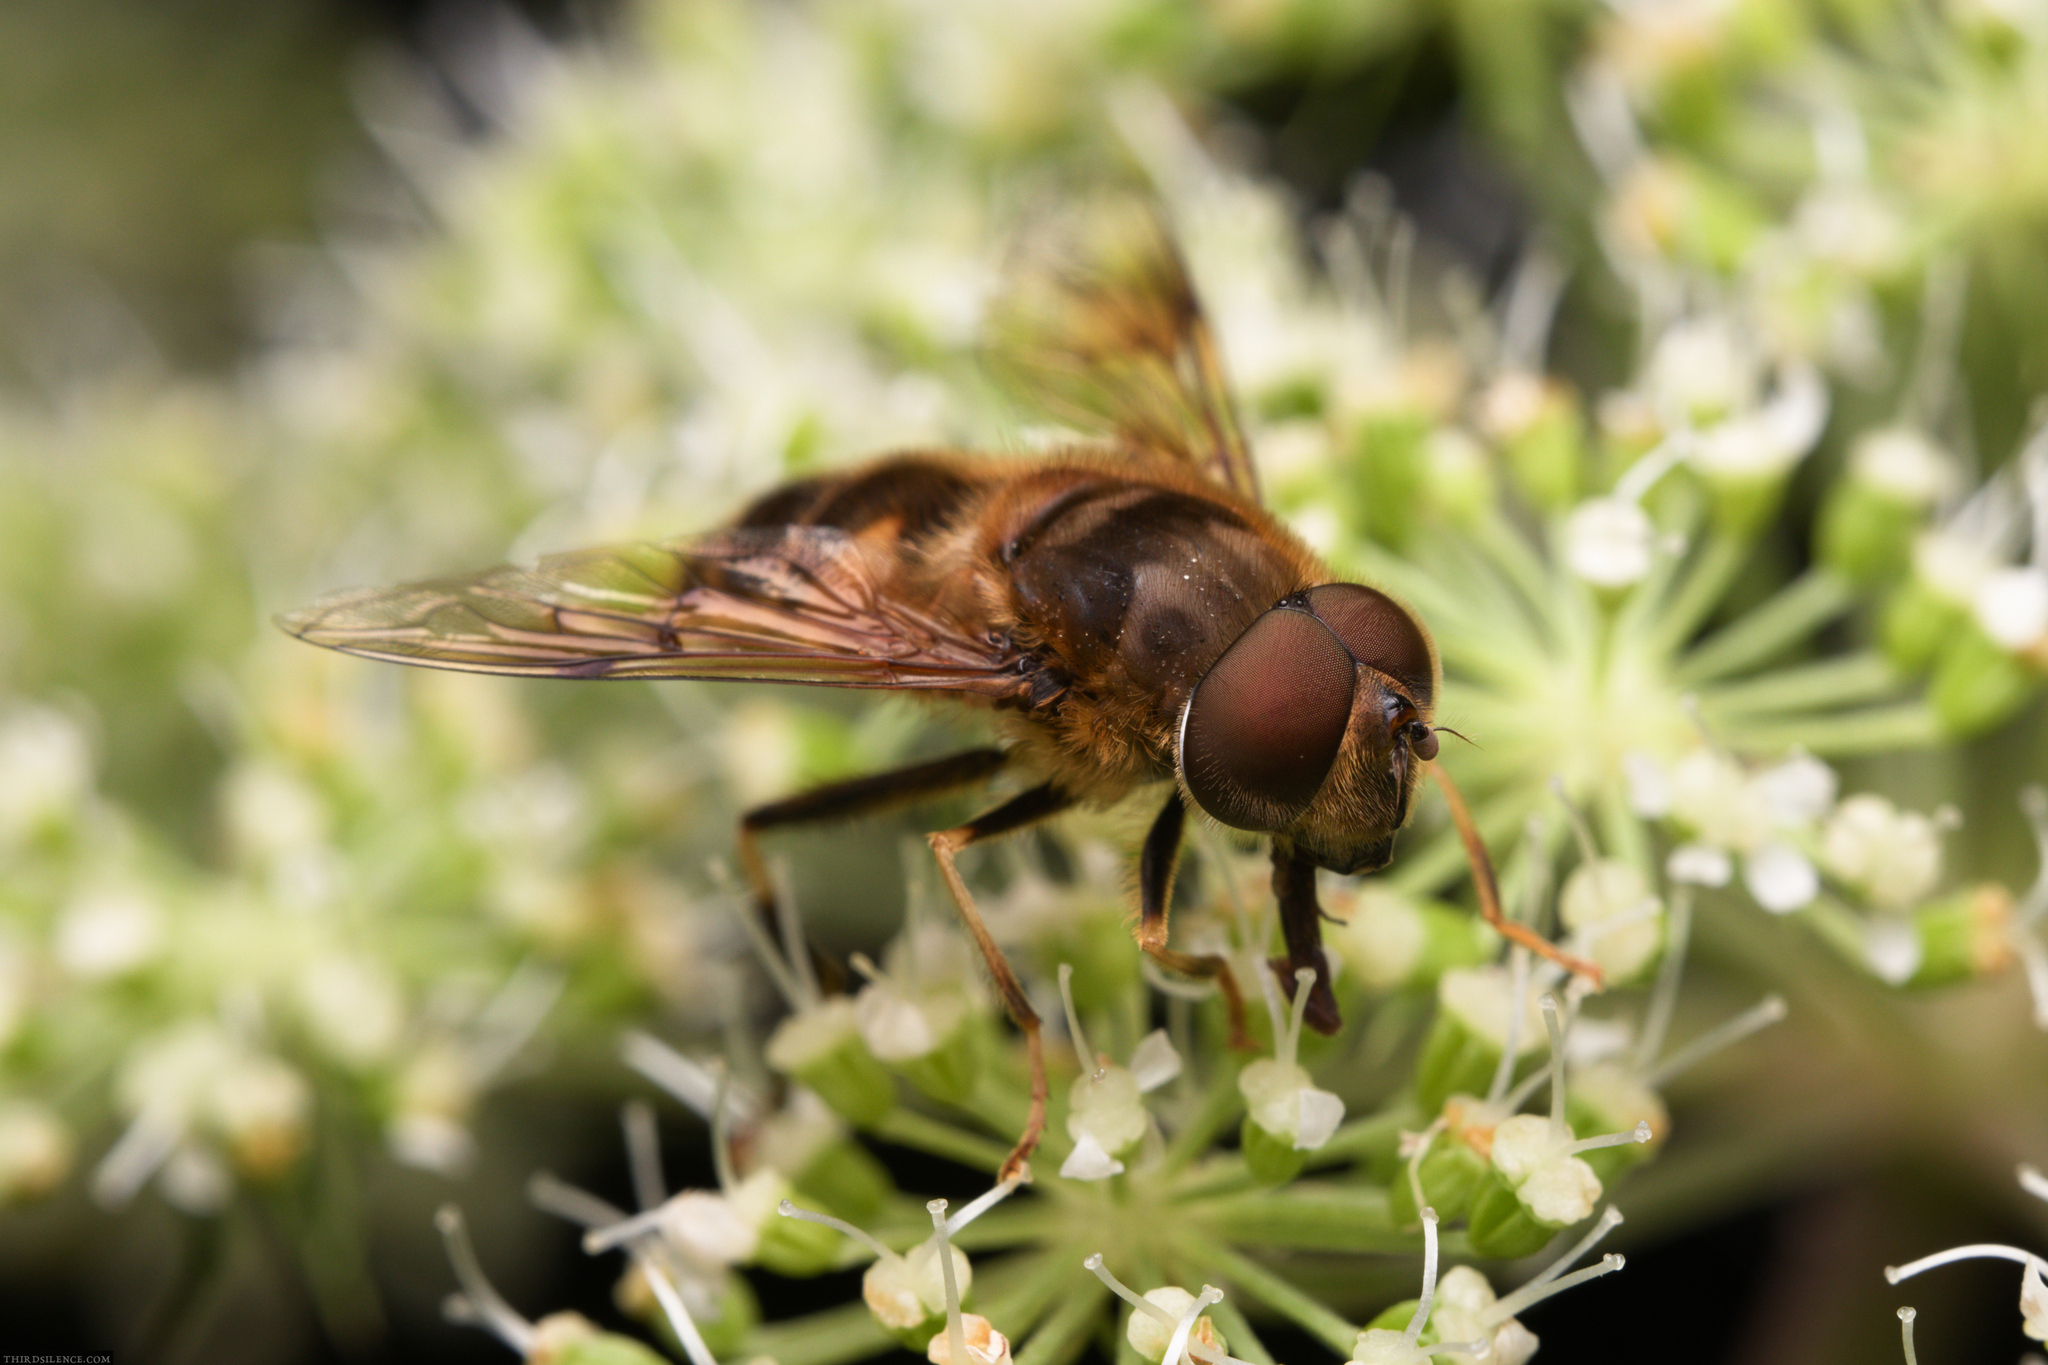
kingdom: Animalia
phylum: Arthropoda
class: Insecta
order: Diptera
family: Syrphidae
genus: Eristalis
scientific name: Eristalis pertinax
